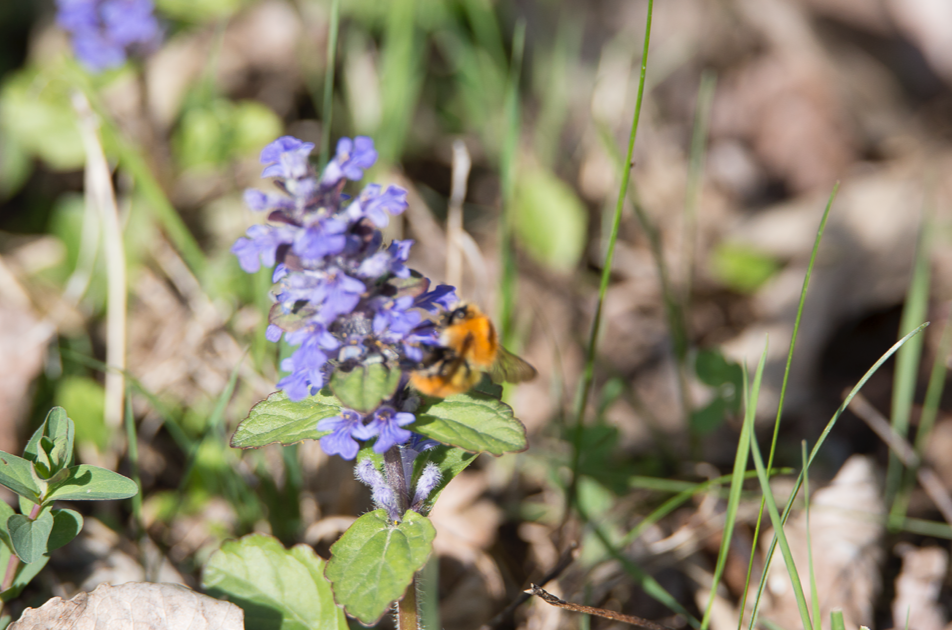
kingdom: Animalia
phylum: Arthropoda
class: Insecta
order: Hymenoptera
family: Apidae
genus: Bombus
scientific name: Bombus pascuorum
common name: Common carder bee
